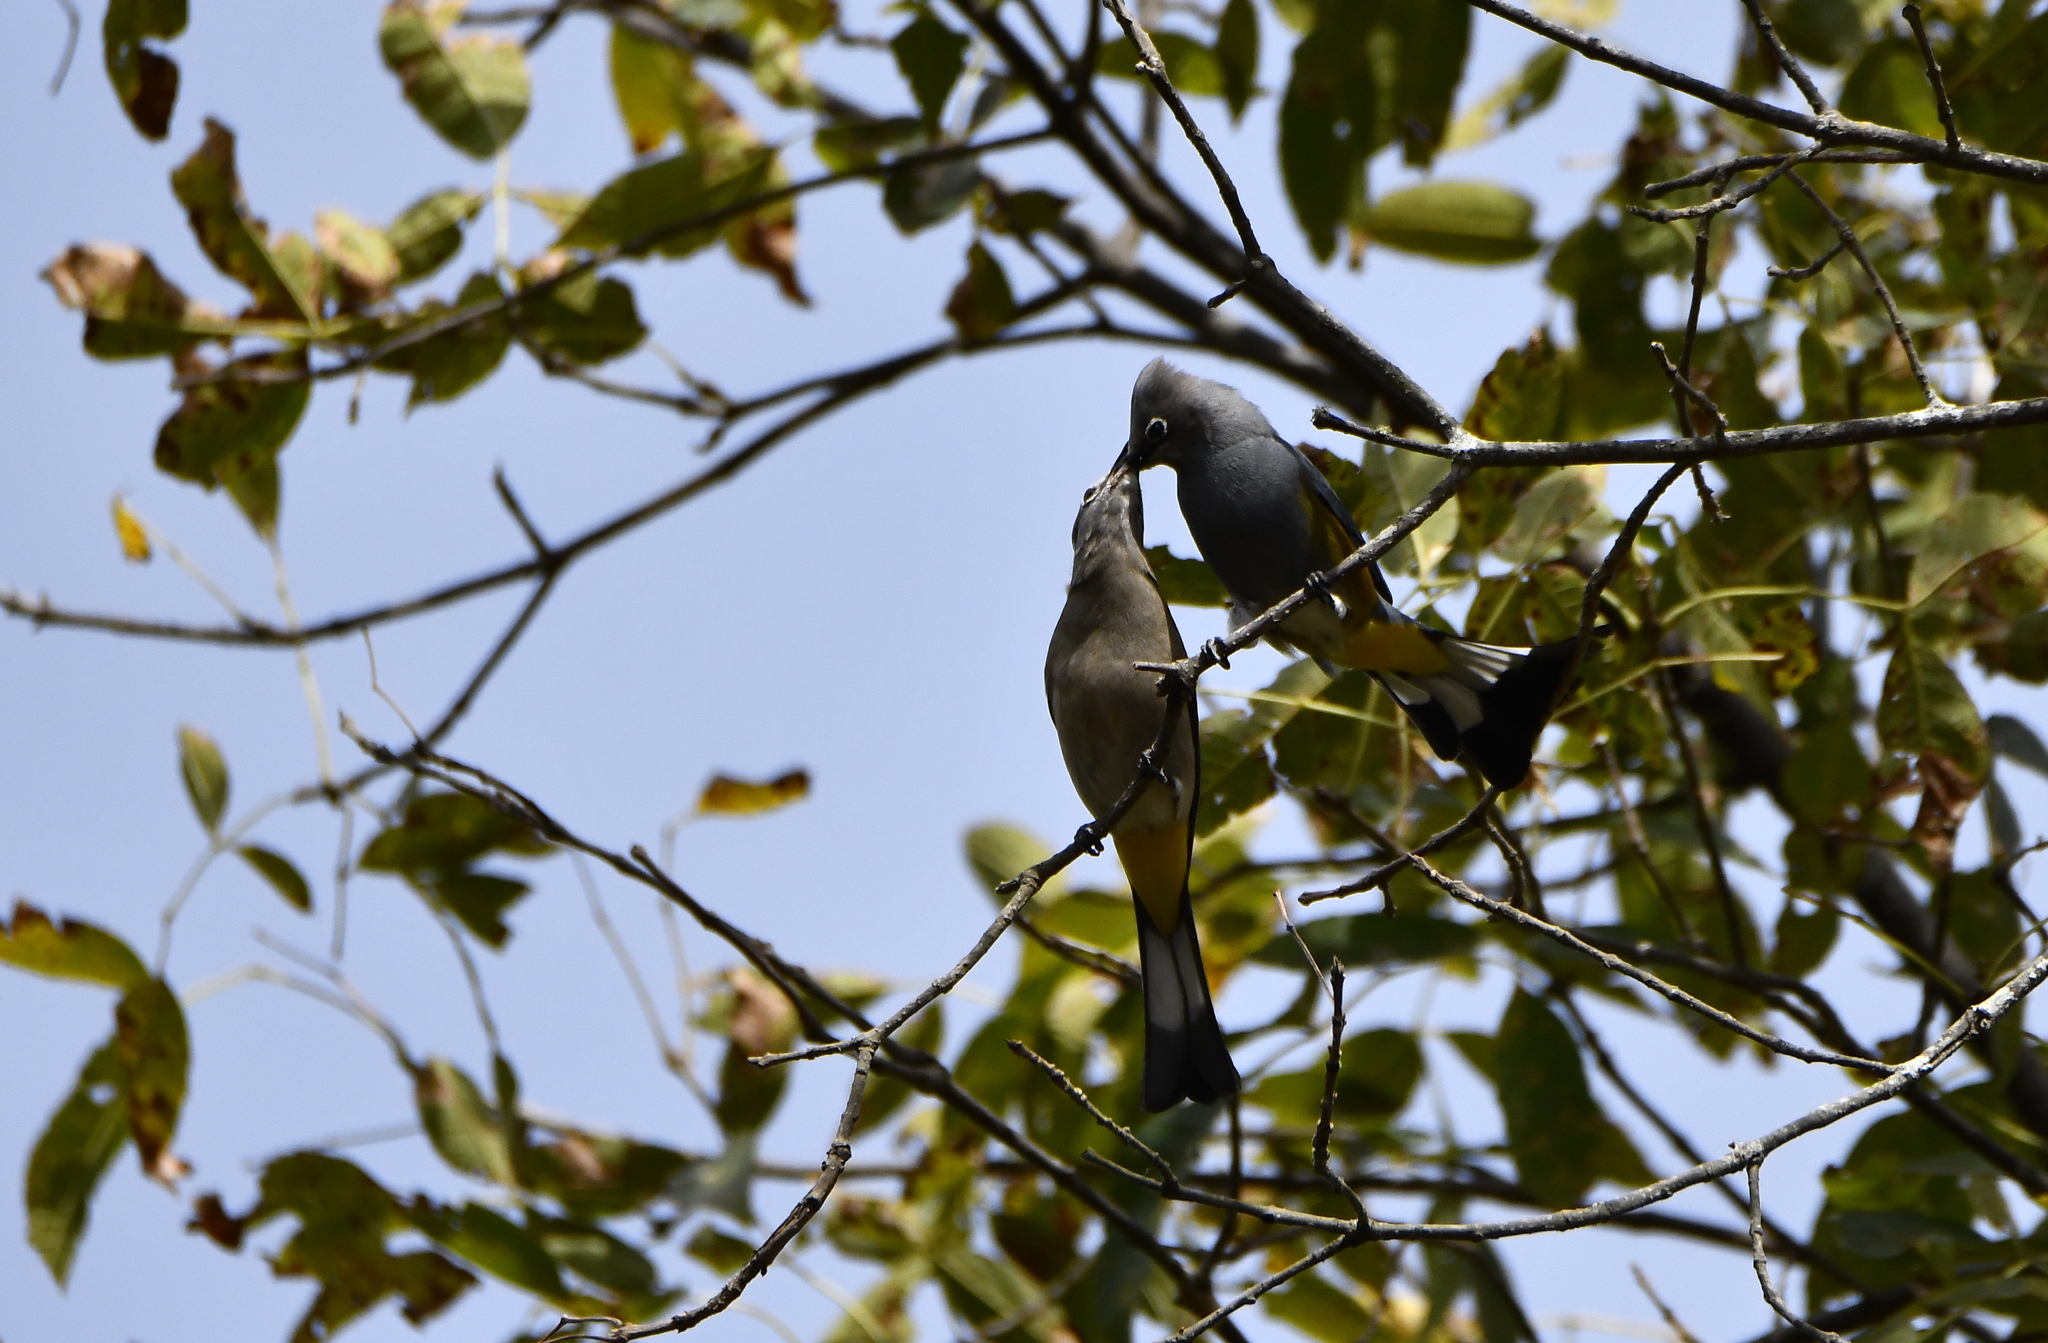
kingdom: Animalia
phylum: Chordata
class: Aves
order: Passeriformes
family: Ptilogonatidae
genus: Ptilogonys
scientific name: Ptilogonys cinereus
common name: Gray silky-flycatcher
